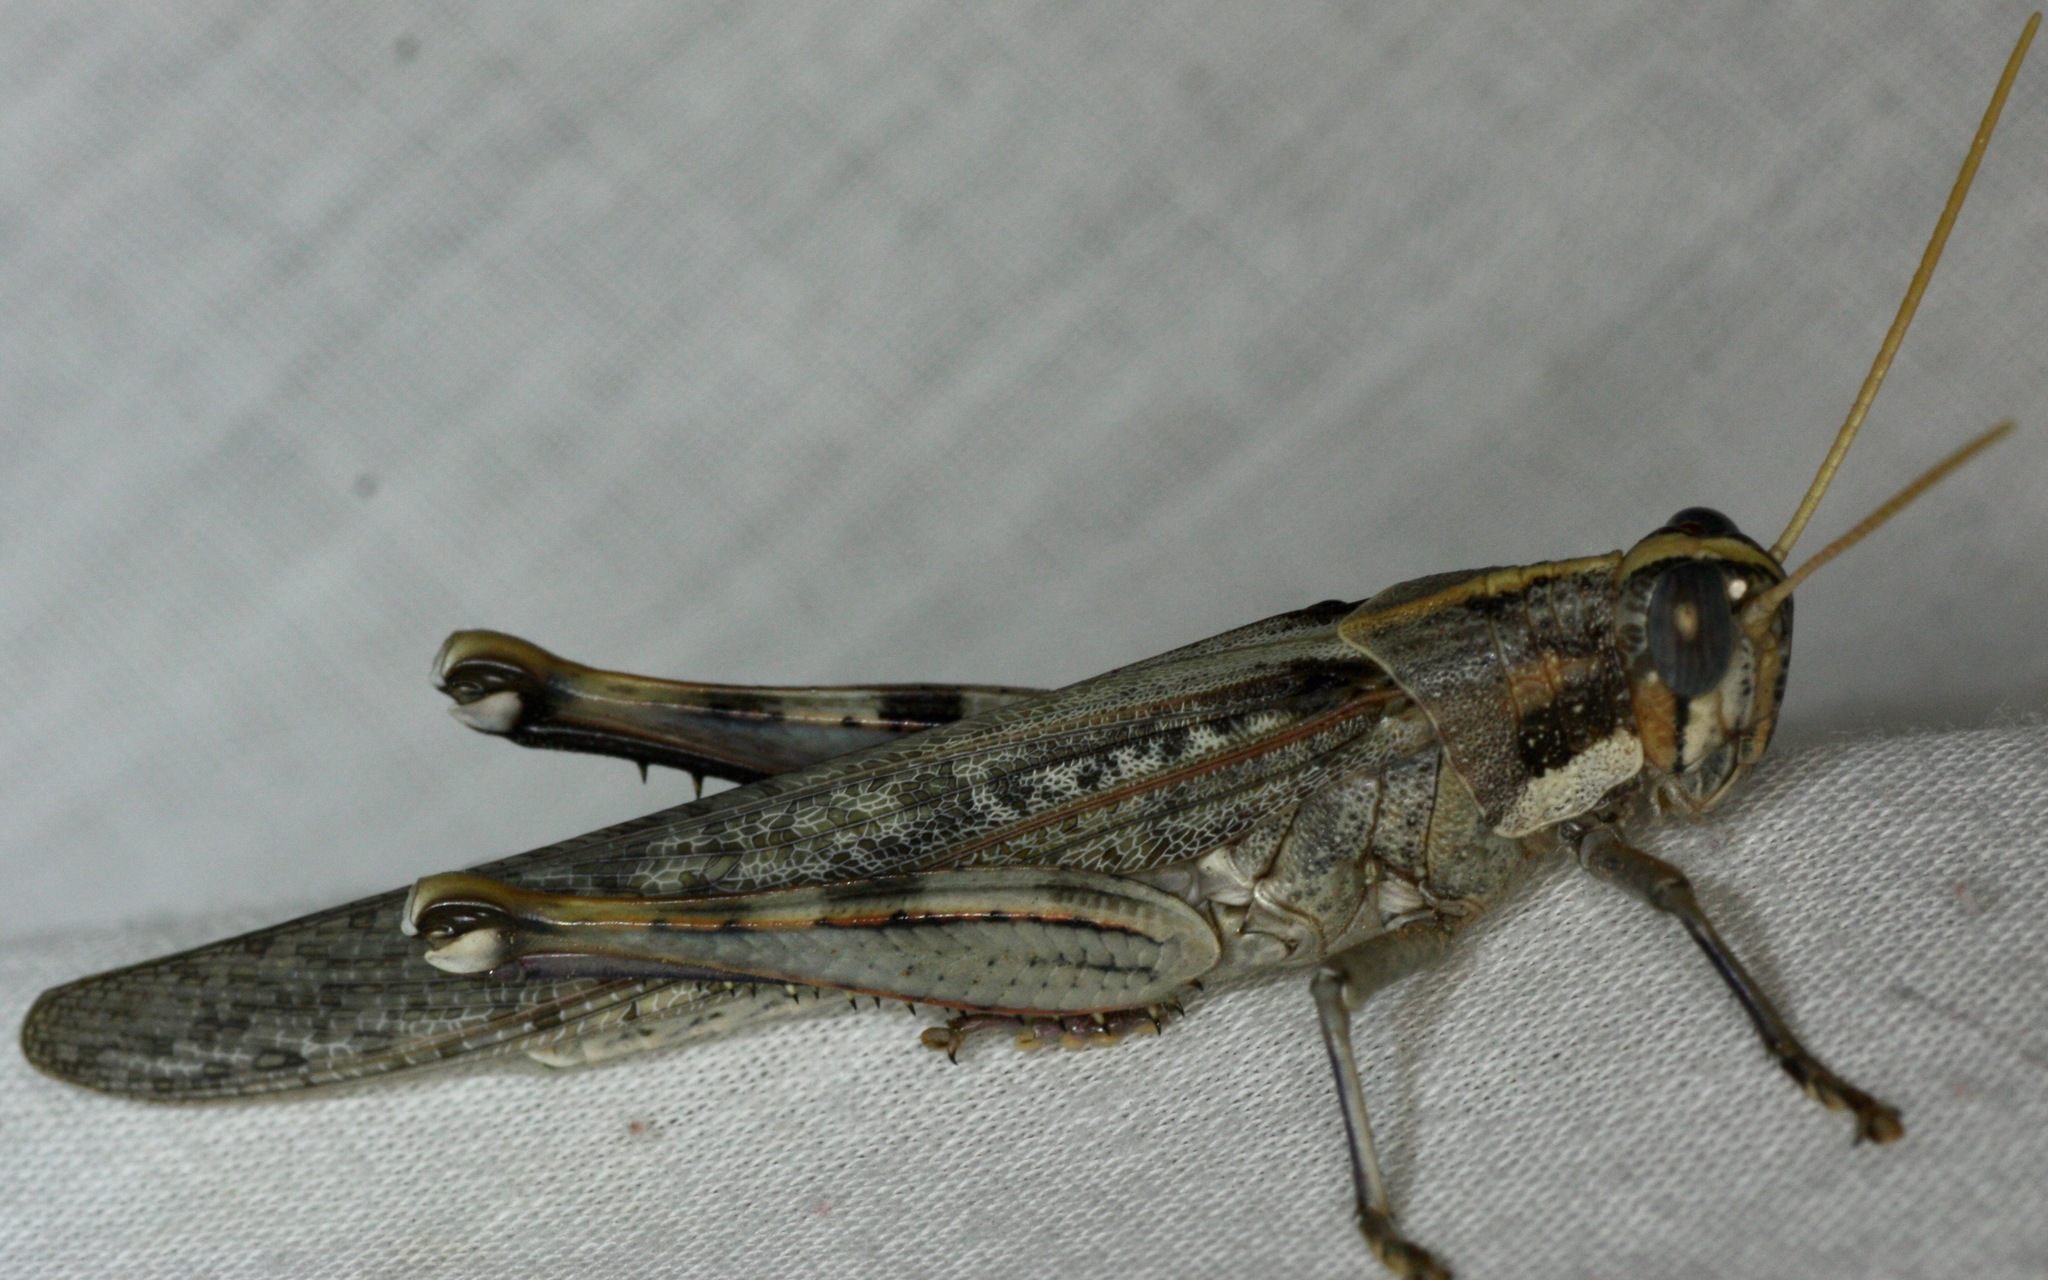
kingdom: Animalia
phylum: Arthropoda
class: Insecta
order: Orthoptera
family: Acrididae
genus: Schistocerca
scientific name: Schistocerca nitens
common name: Vagrant grasshopper
